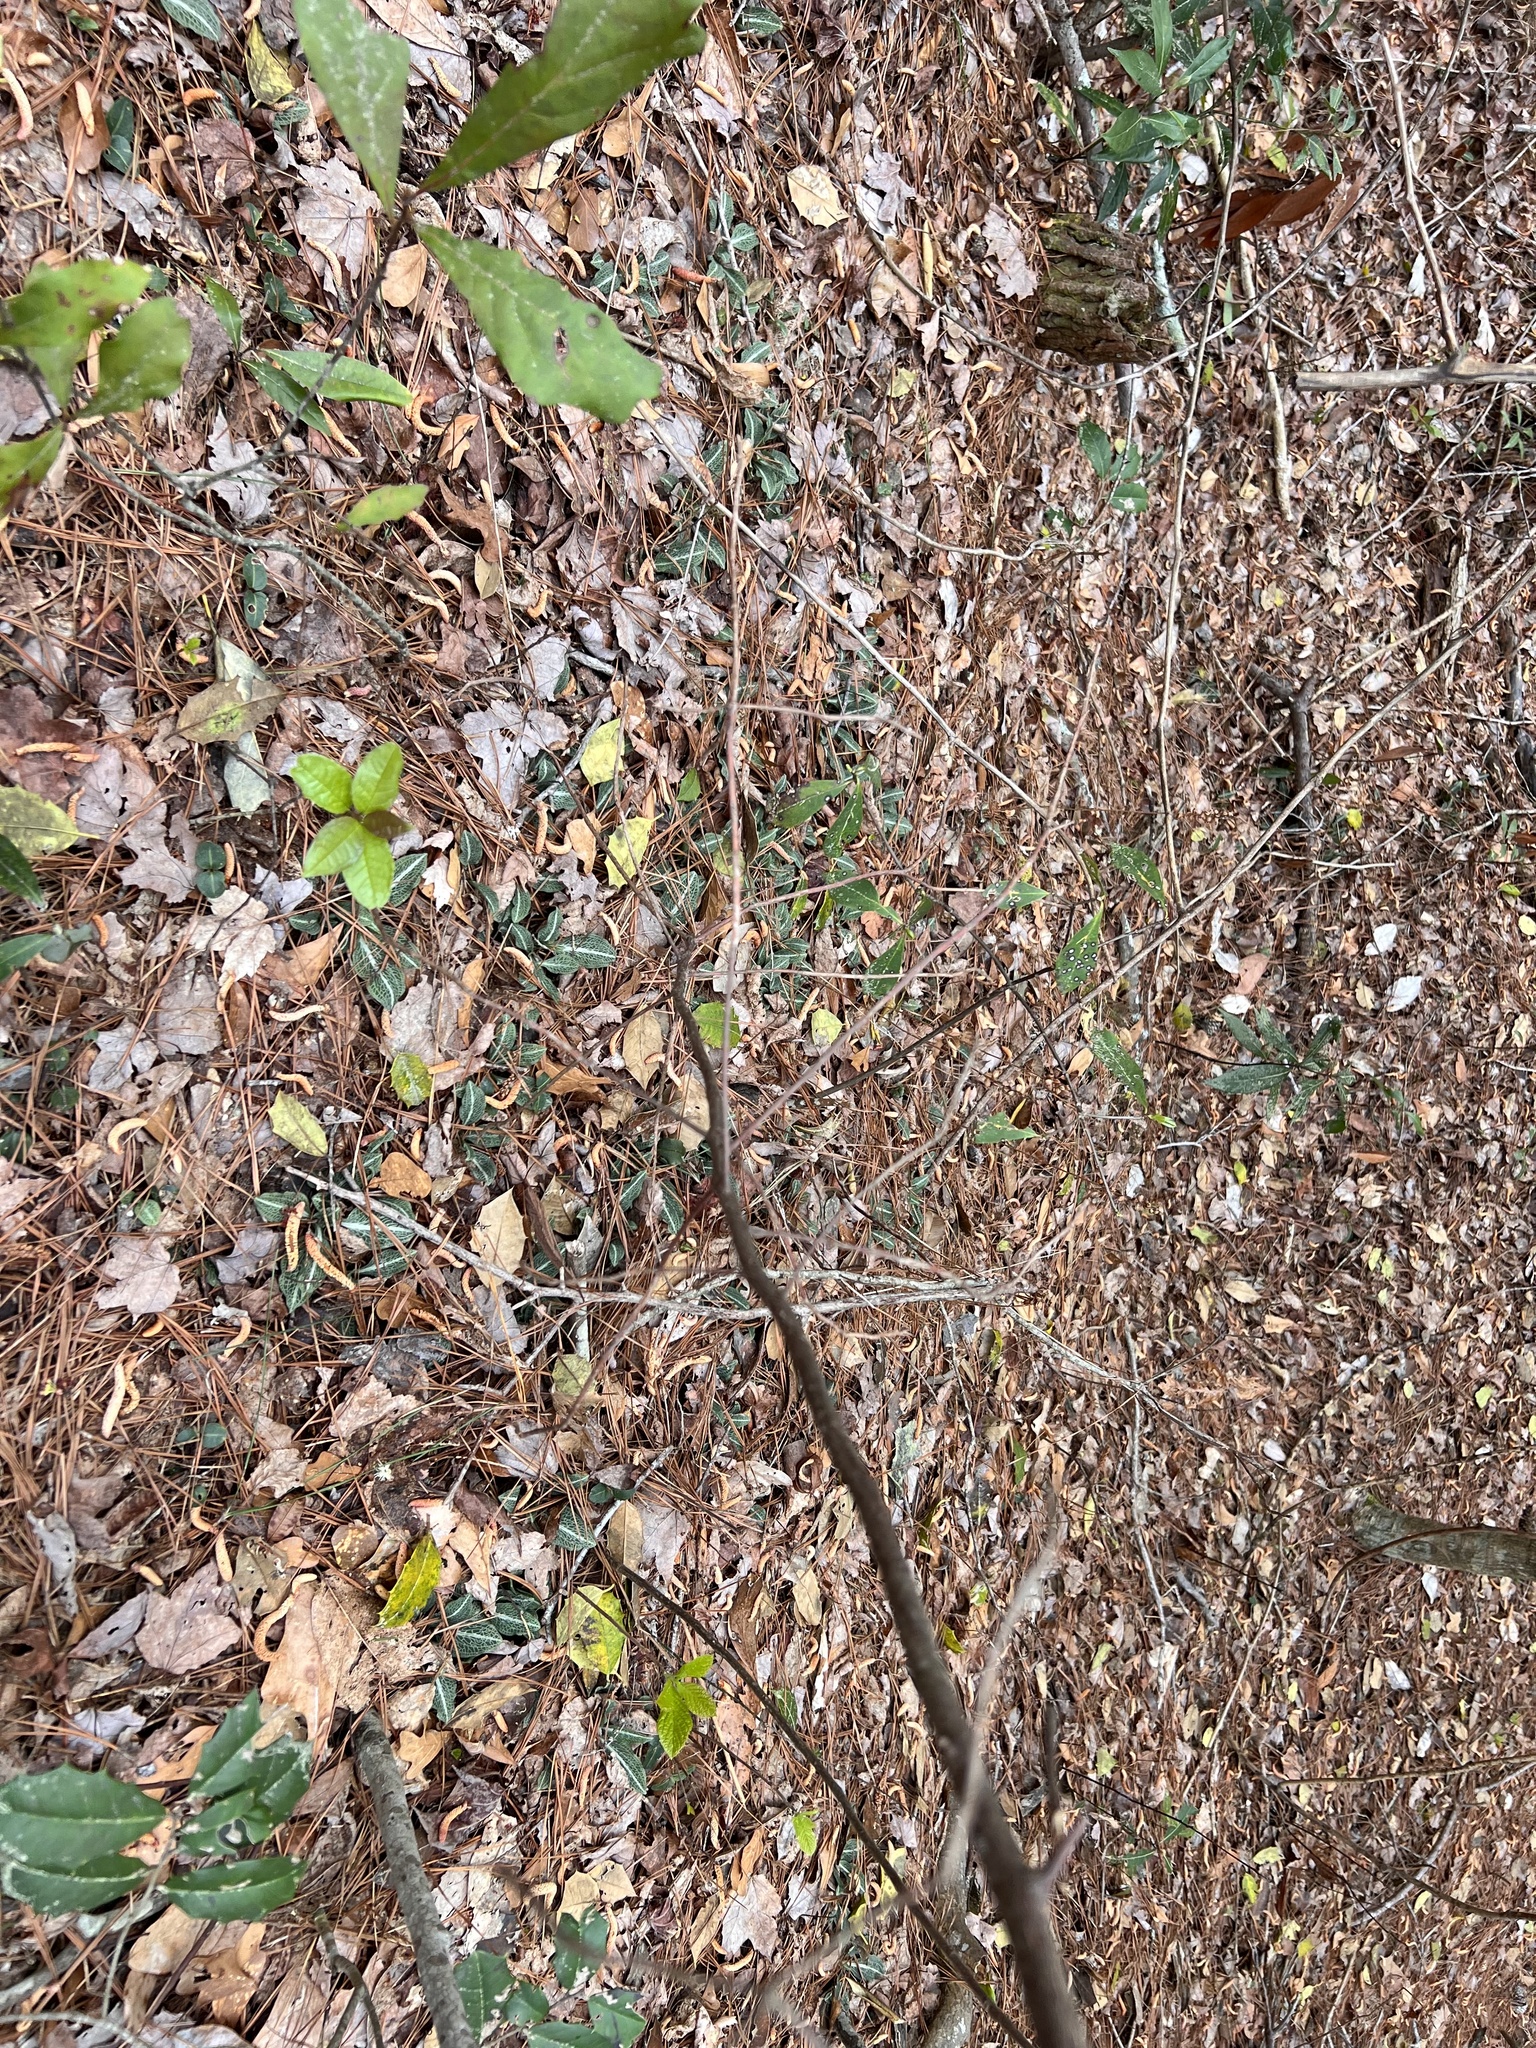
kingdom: Plantae
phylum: Tracheophyta
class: Liliopsida
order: Asparagales
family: Orchidaceae
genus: Goodyera
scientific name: Goodyera pubescens
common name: Downy rattlesnake-plantain
